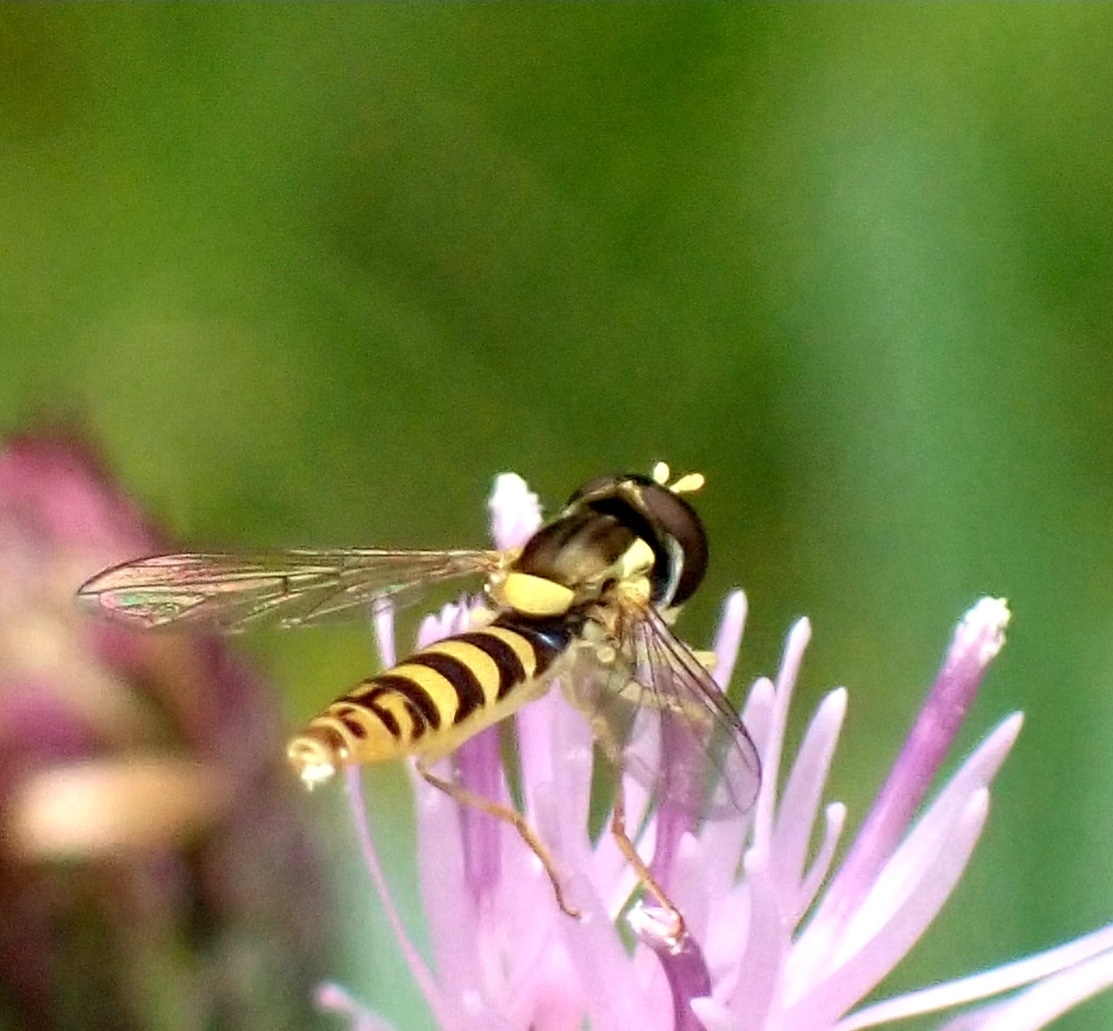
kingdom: Animalia
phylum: Arthropoda
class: Insecta
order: Diptera
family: Syrphidae
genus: Sphaerophoria
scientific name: Sphaerophoria
